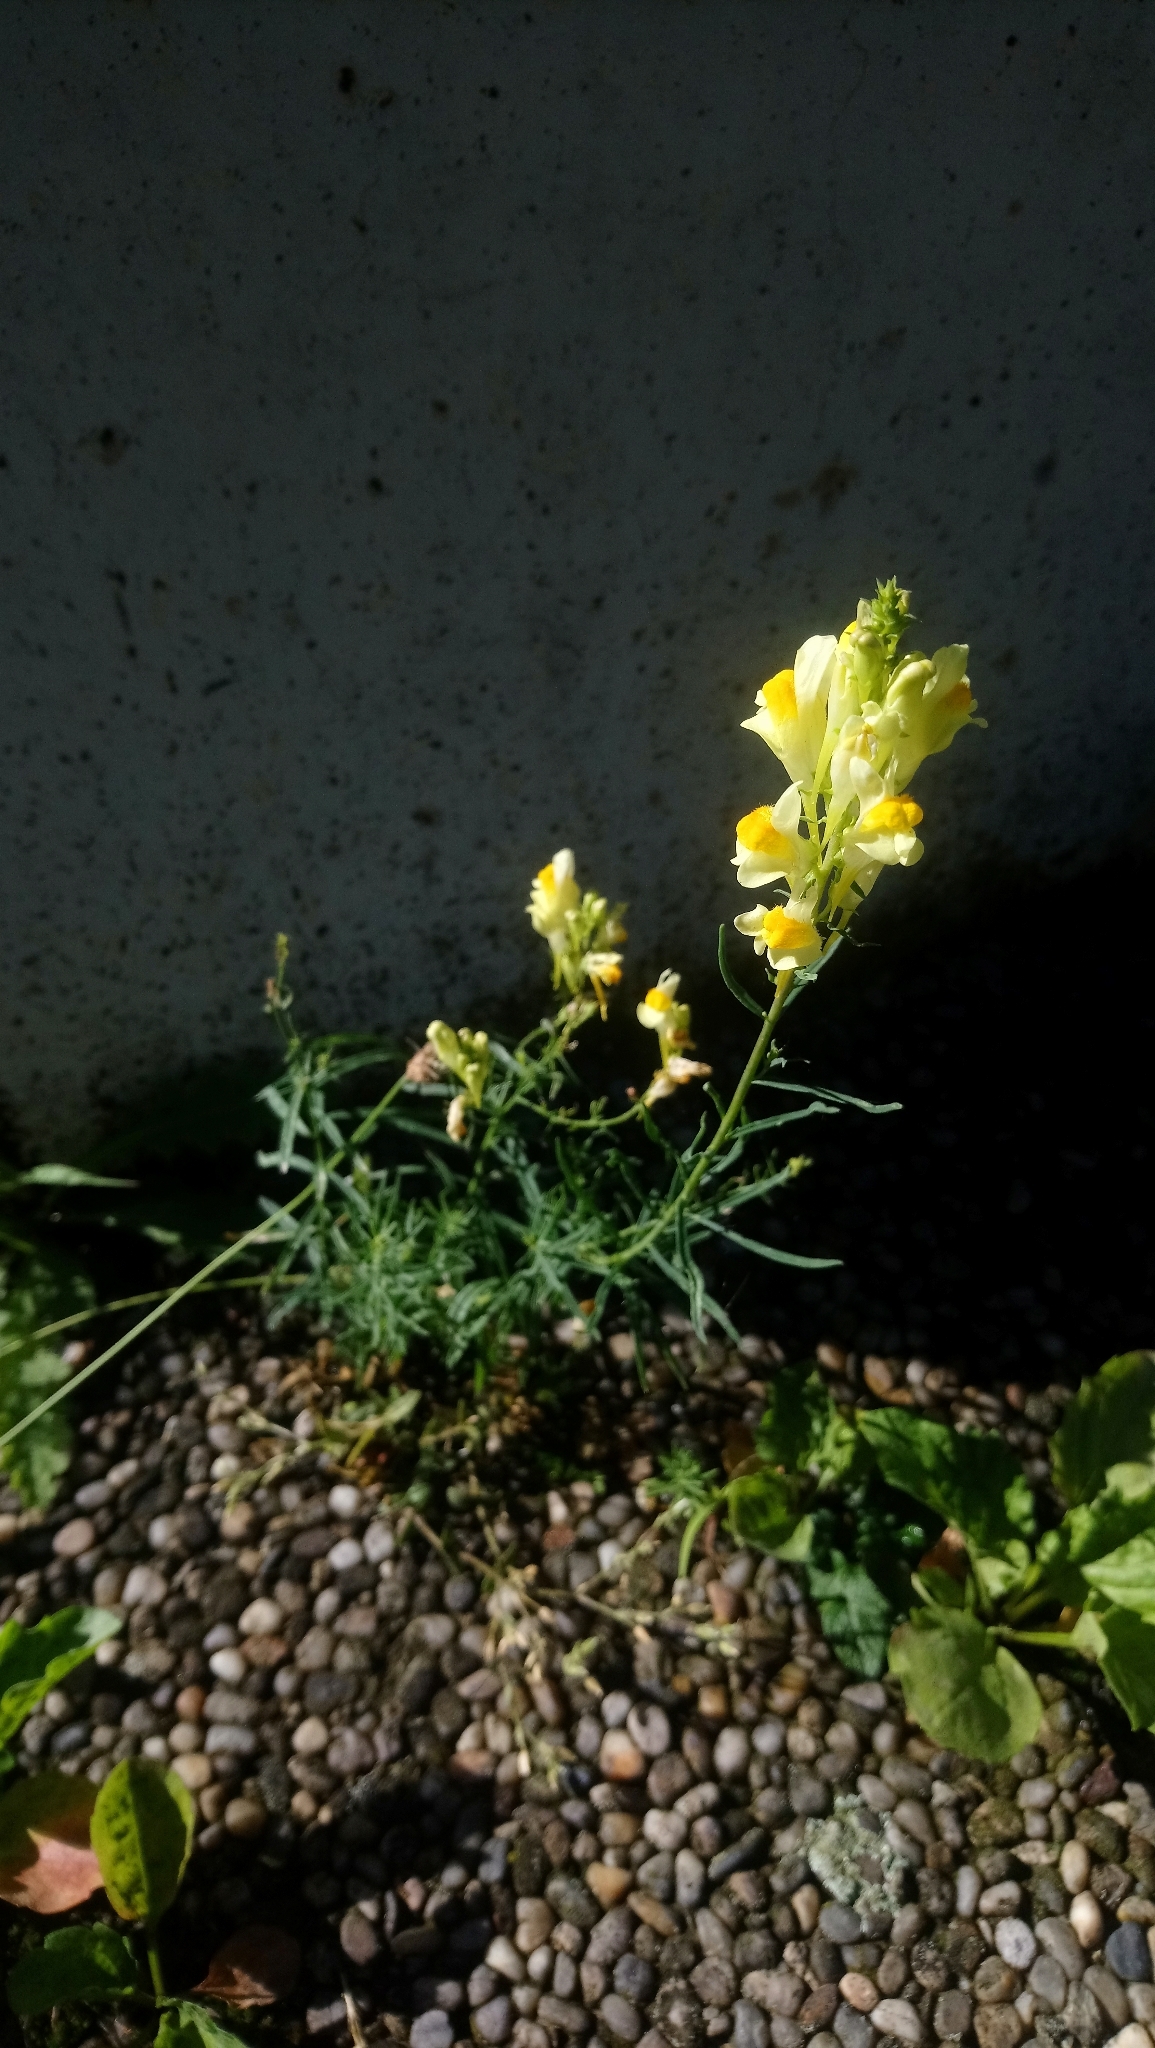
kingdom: Plantae
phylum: Tracheophyta
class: Magnoliopsida
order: Lamiales
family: Plantaginaceae
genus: Linaria
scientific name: Linaria vulgaris
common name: Butter and eggs
